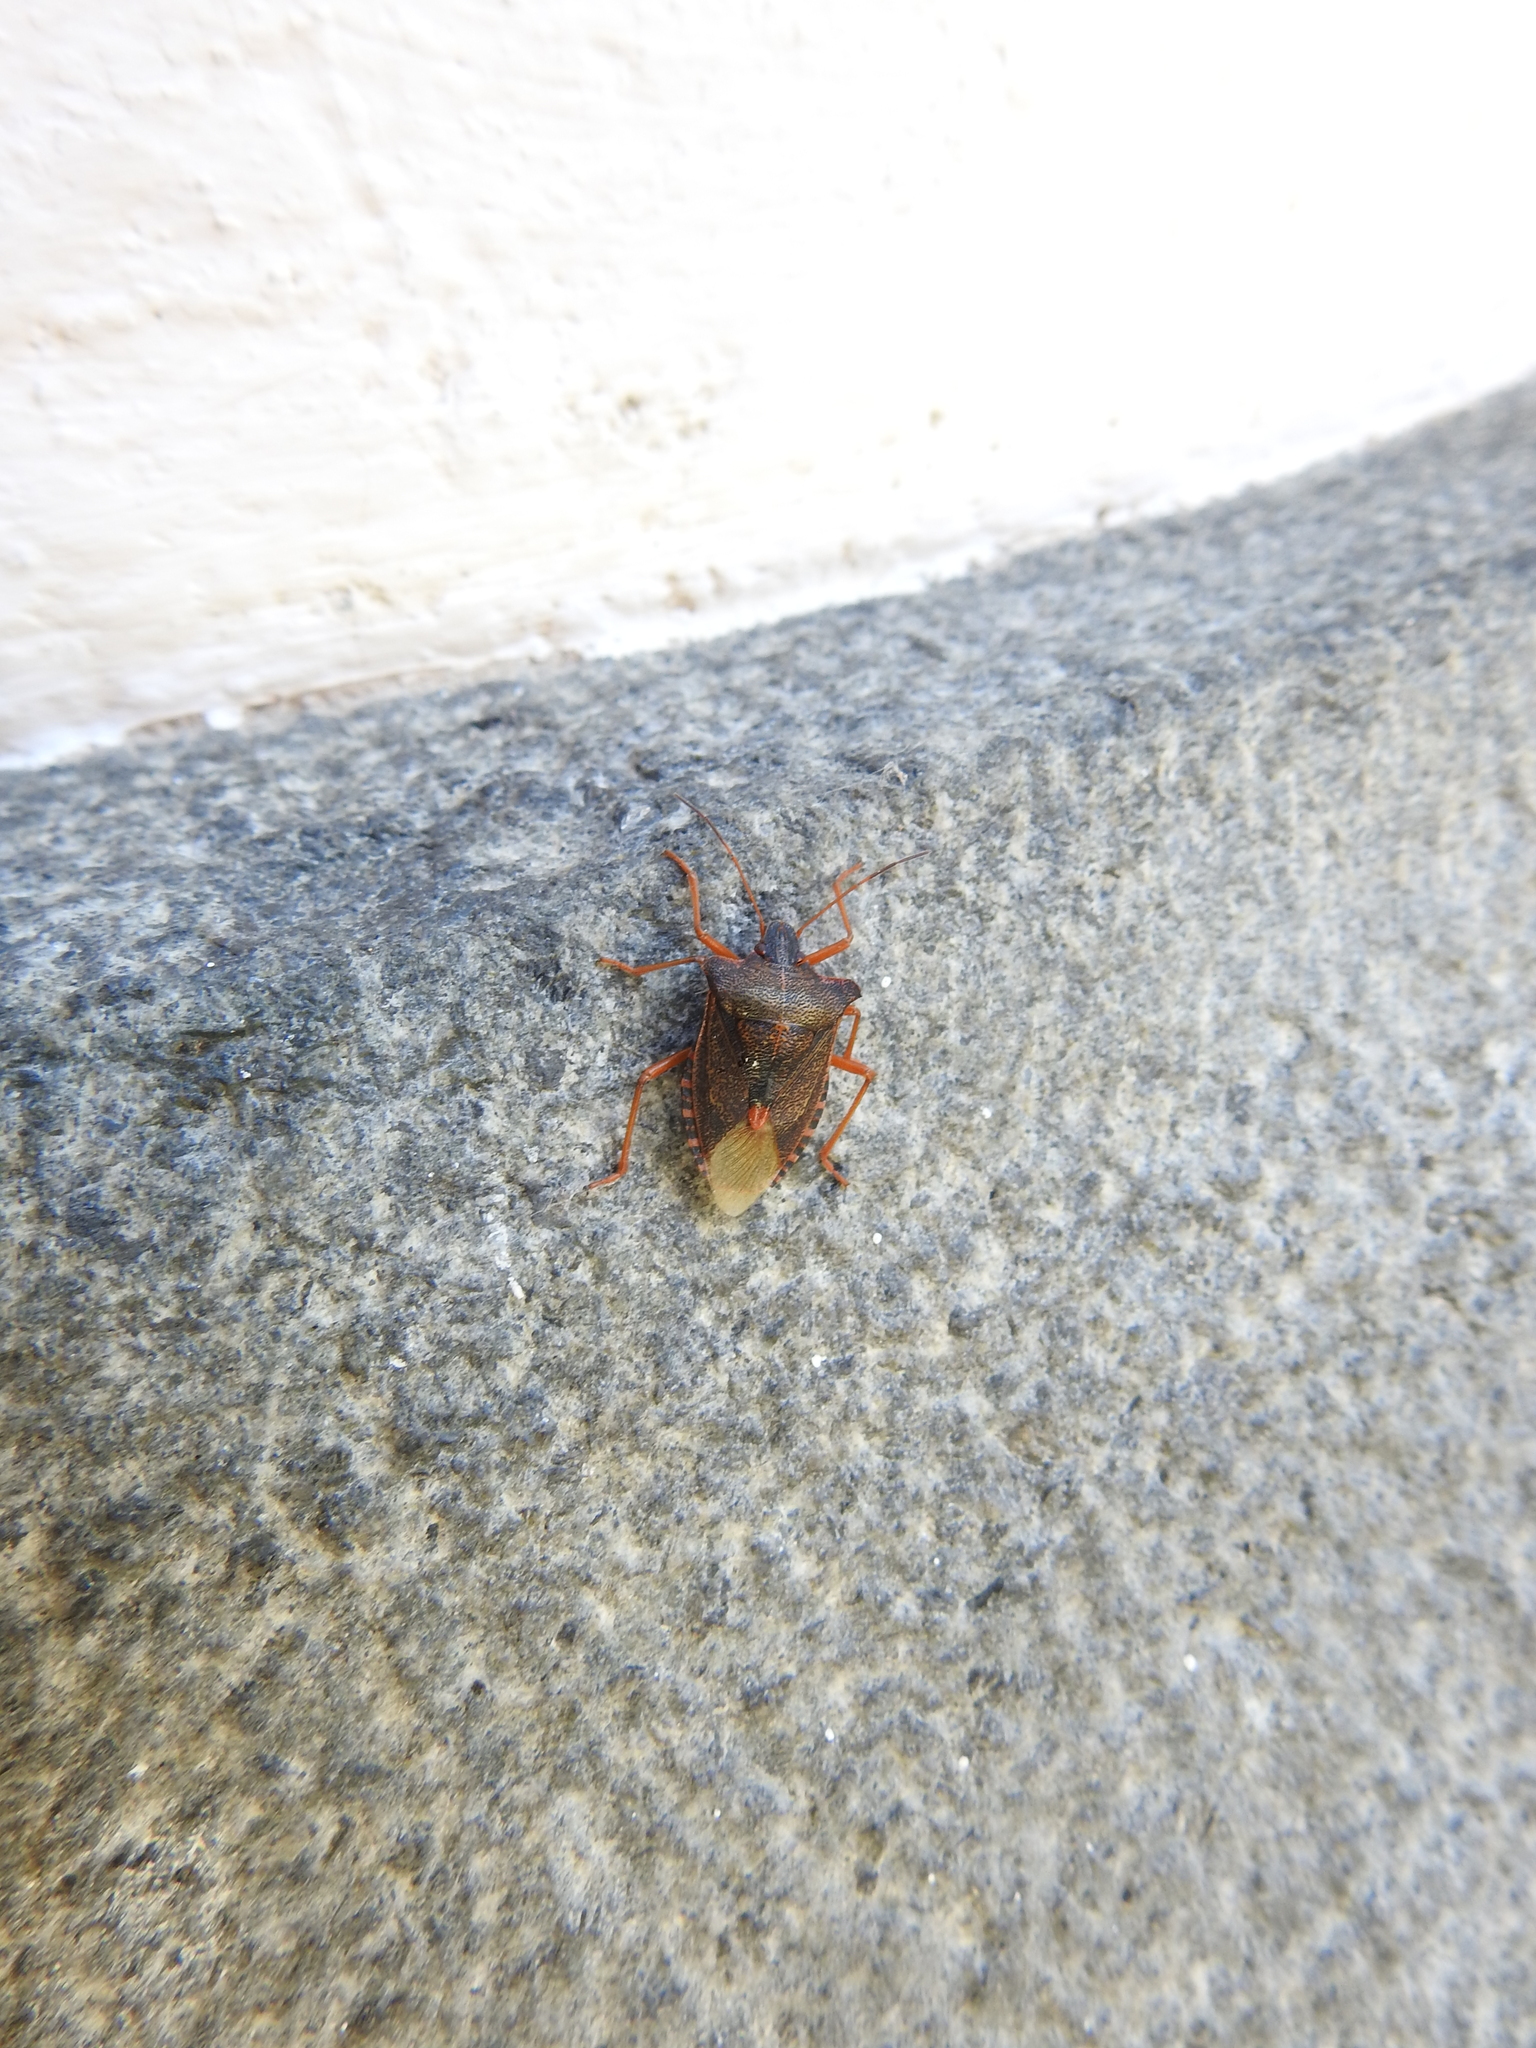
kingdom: Animalia
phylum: Arthropoda
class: Insecta
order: Hemiptera
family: Pentatomidae
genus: Pentatoma
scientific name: Pentatoma rufipes
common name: Forest bug
